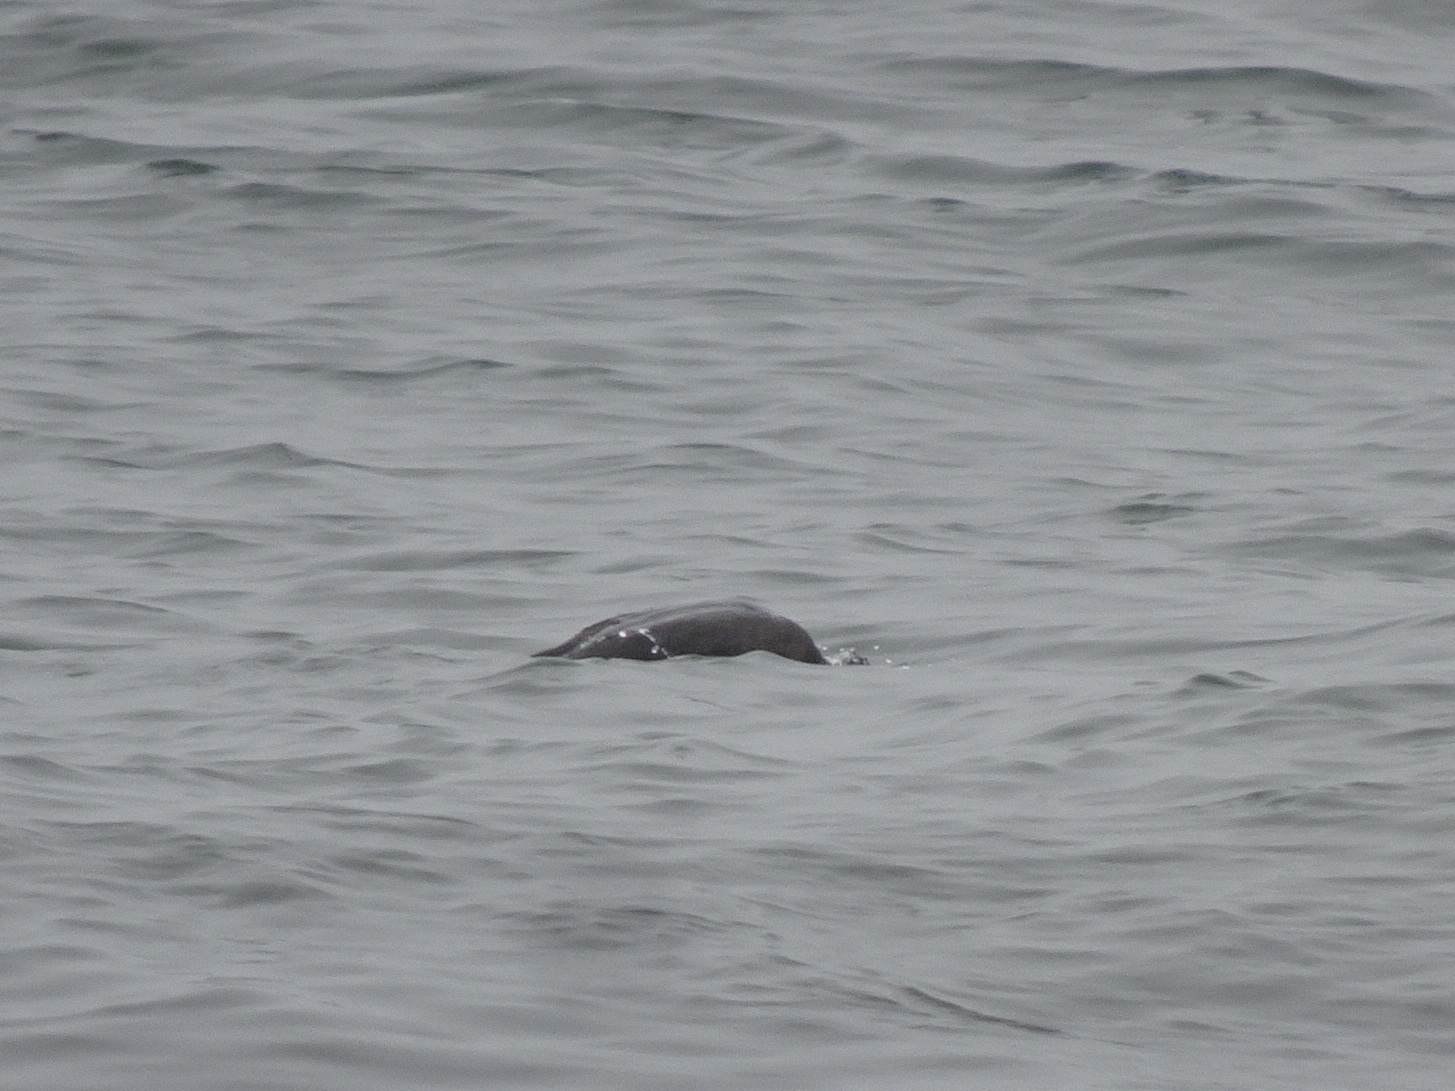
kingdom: Animalia
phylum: Chordata
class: Aves
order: Suliformes
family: Phalacrocoracidae
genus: Phalacrocorax
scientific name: Phalacrocorax auritus
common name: Double-crested cormorant
